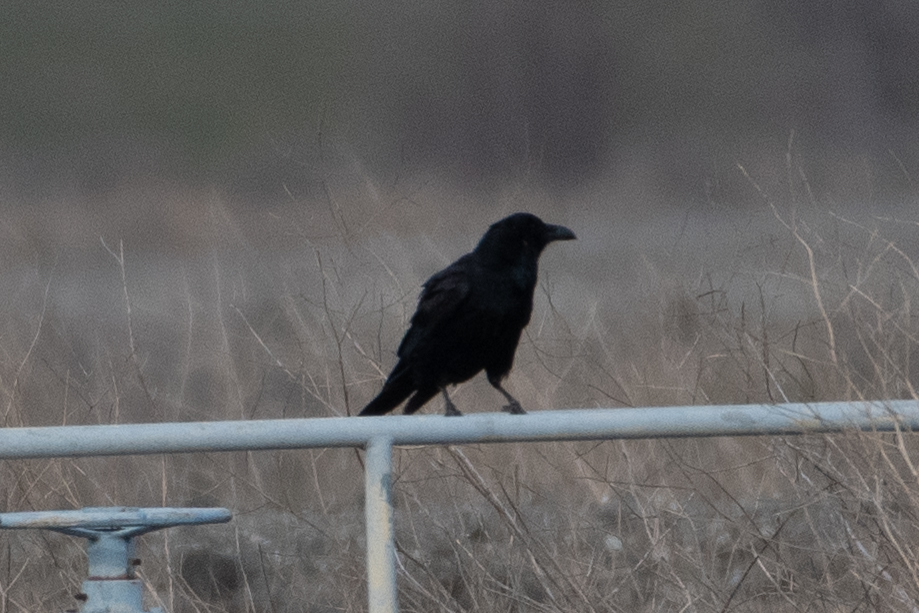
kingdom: Animalia
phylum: Chordata
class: Aves
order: Passeriformes
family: Corvidae
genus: Corvus
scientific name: Corvus corax
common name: Common raven
